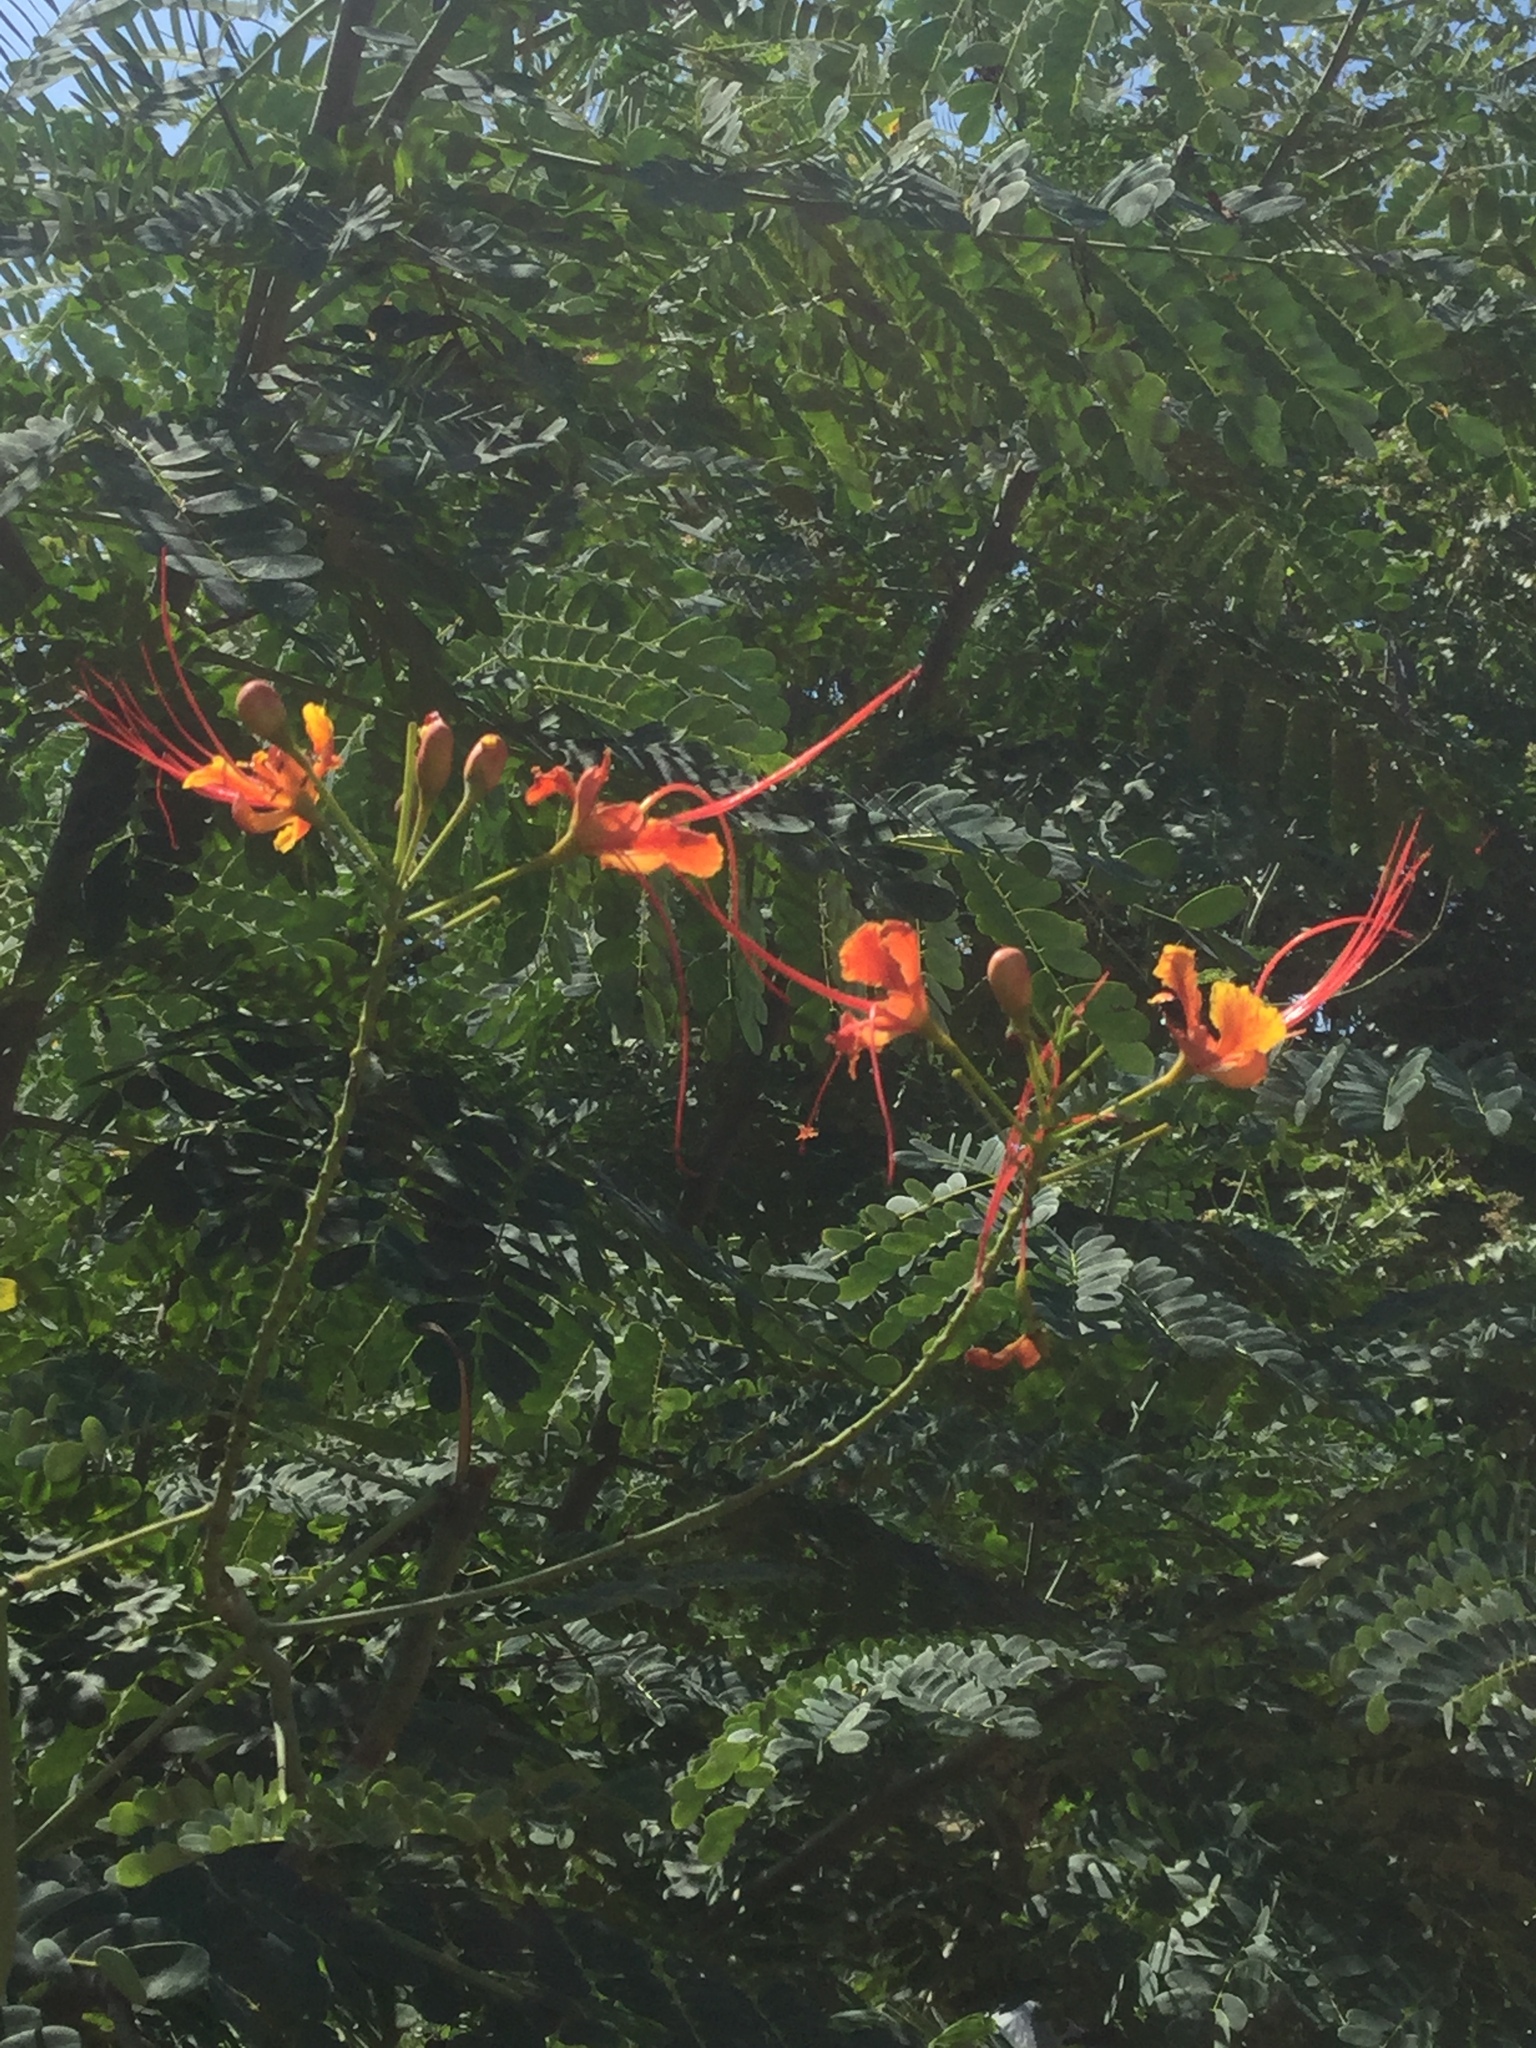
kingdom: Plantae
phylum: Tracheophyta
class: Magnoliopsida
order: Fabales
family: Fabaceae
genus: Caesalpinia
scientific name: Caesalpinia pulcherrima
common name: Pride-of-barbados
